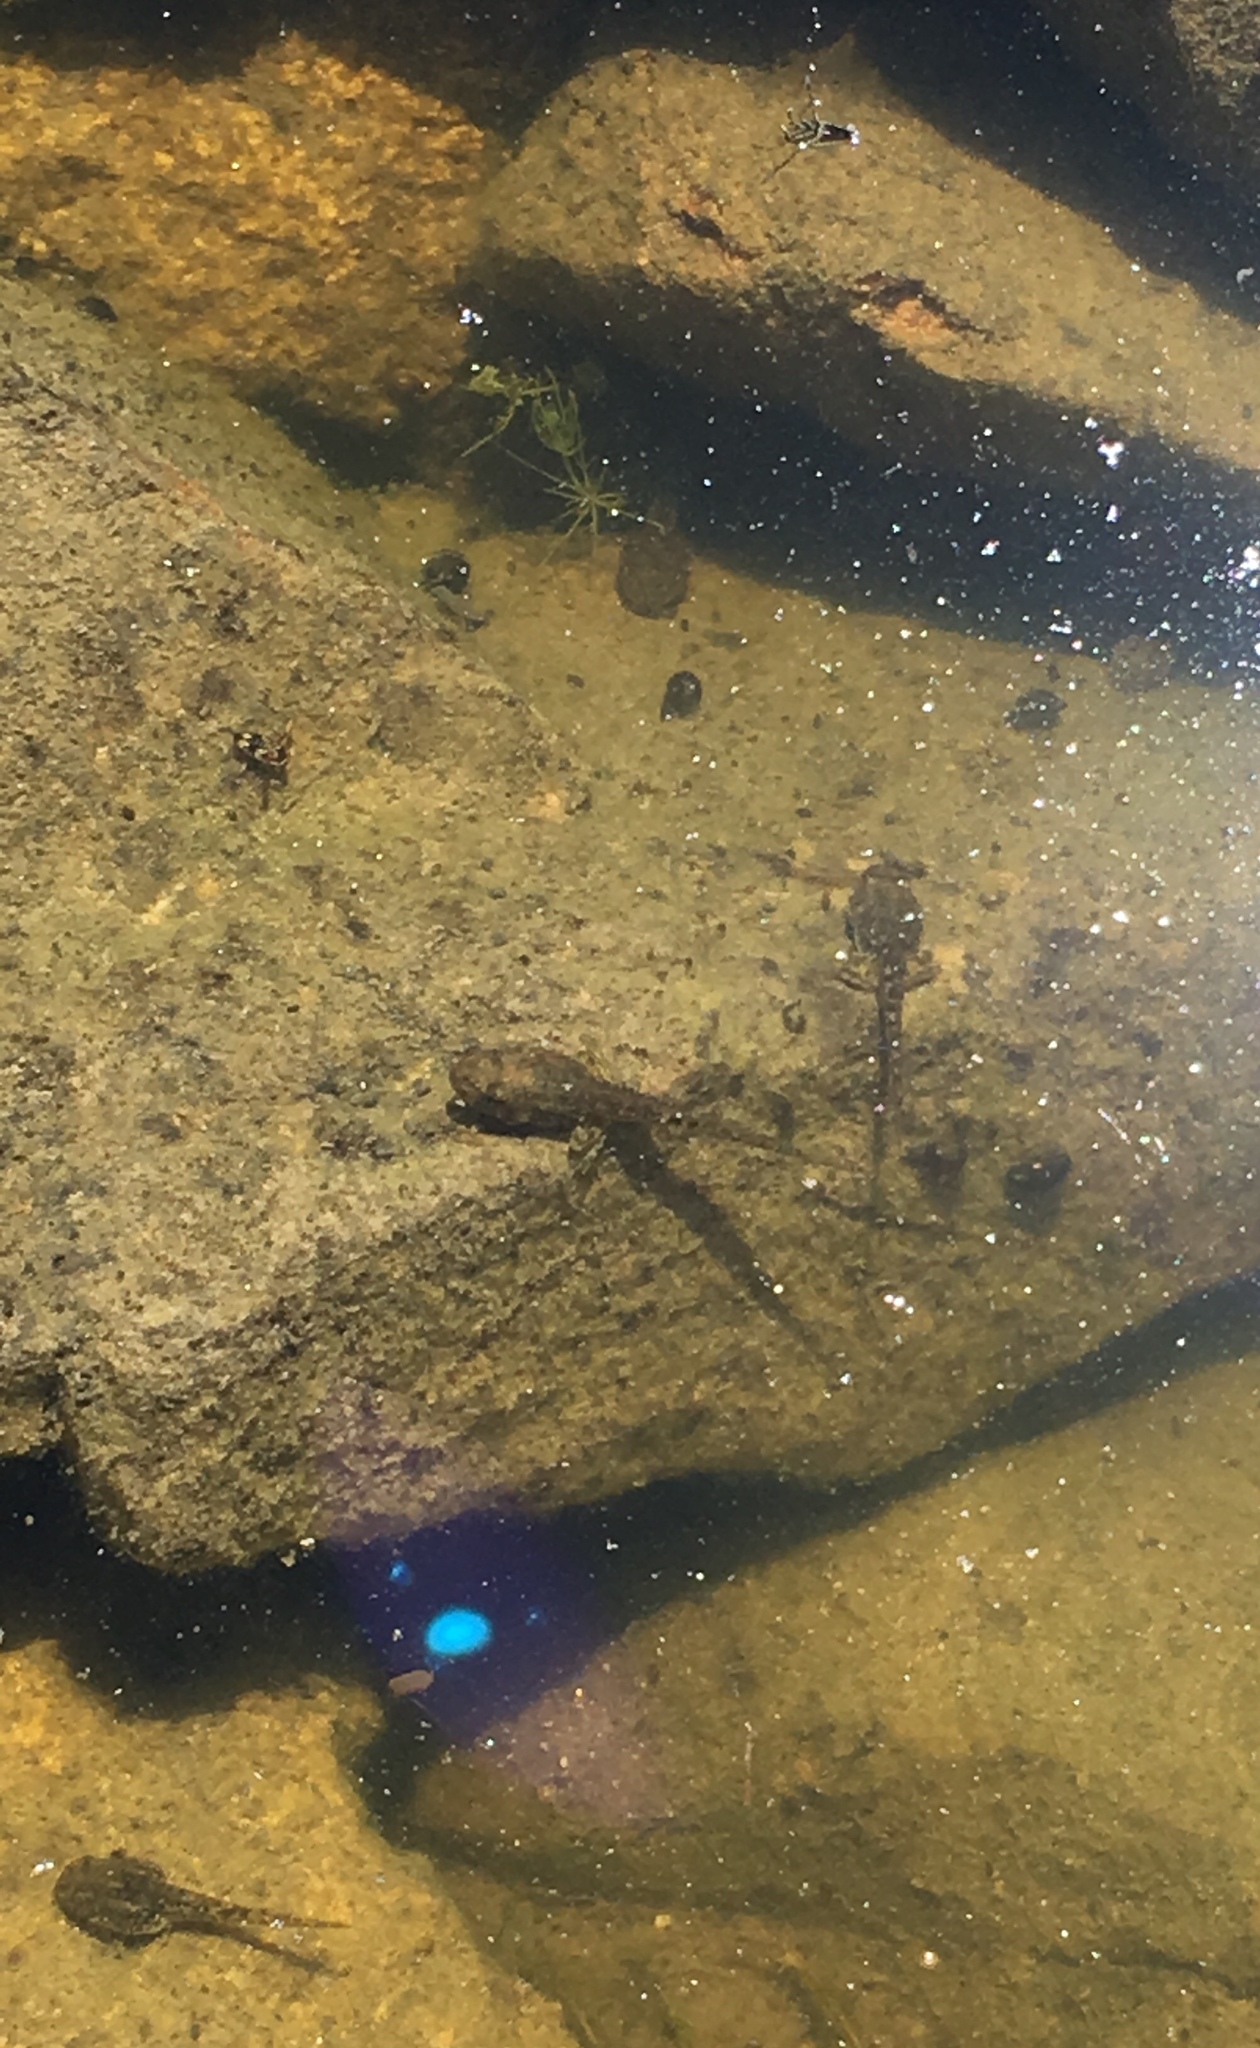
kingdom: Animalia
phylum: Chordata
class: Amphibia
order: Anura
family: Hylidae
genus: Pseudacris
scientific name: Pseudacris cadaverina
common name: California chorus frog
